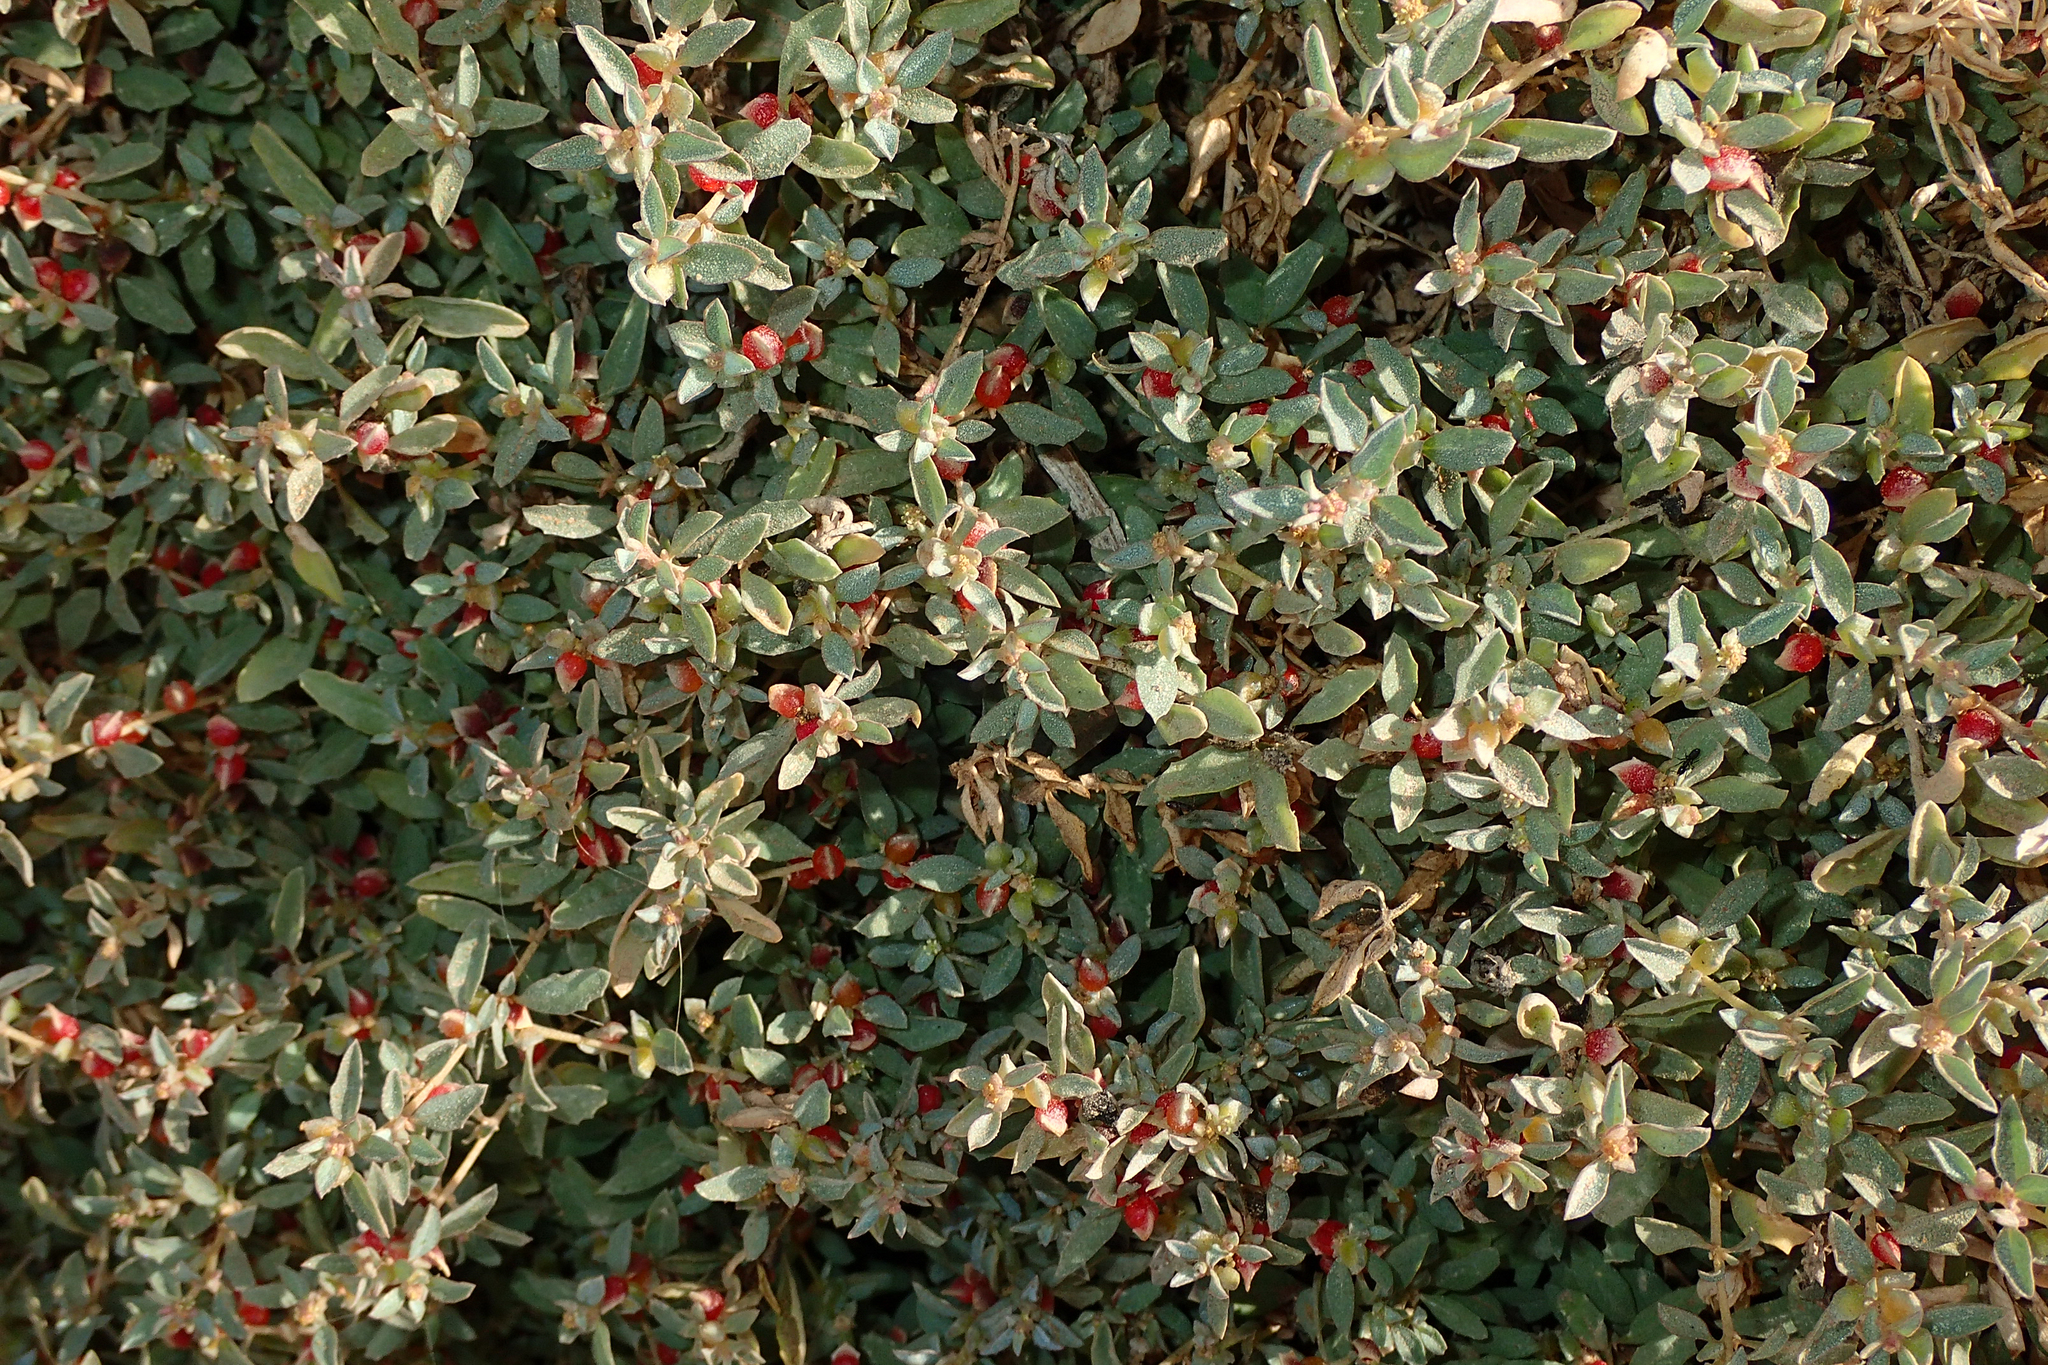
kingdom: Plantae
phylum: Tracheophyta
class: Magnoliopsida
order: Caryophyllales
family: Amaranthaceae
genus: Atriplex
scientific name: Atriplex semibaccata
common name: Australian saltbush
